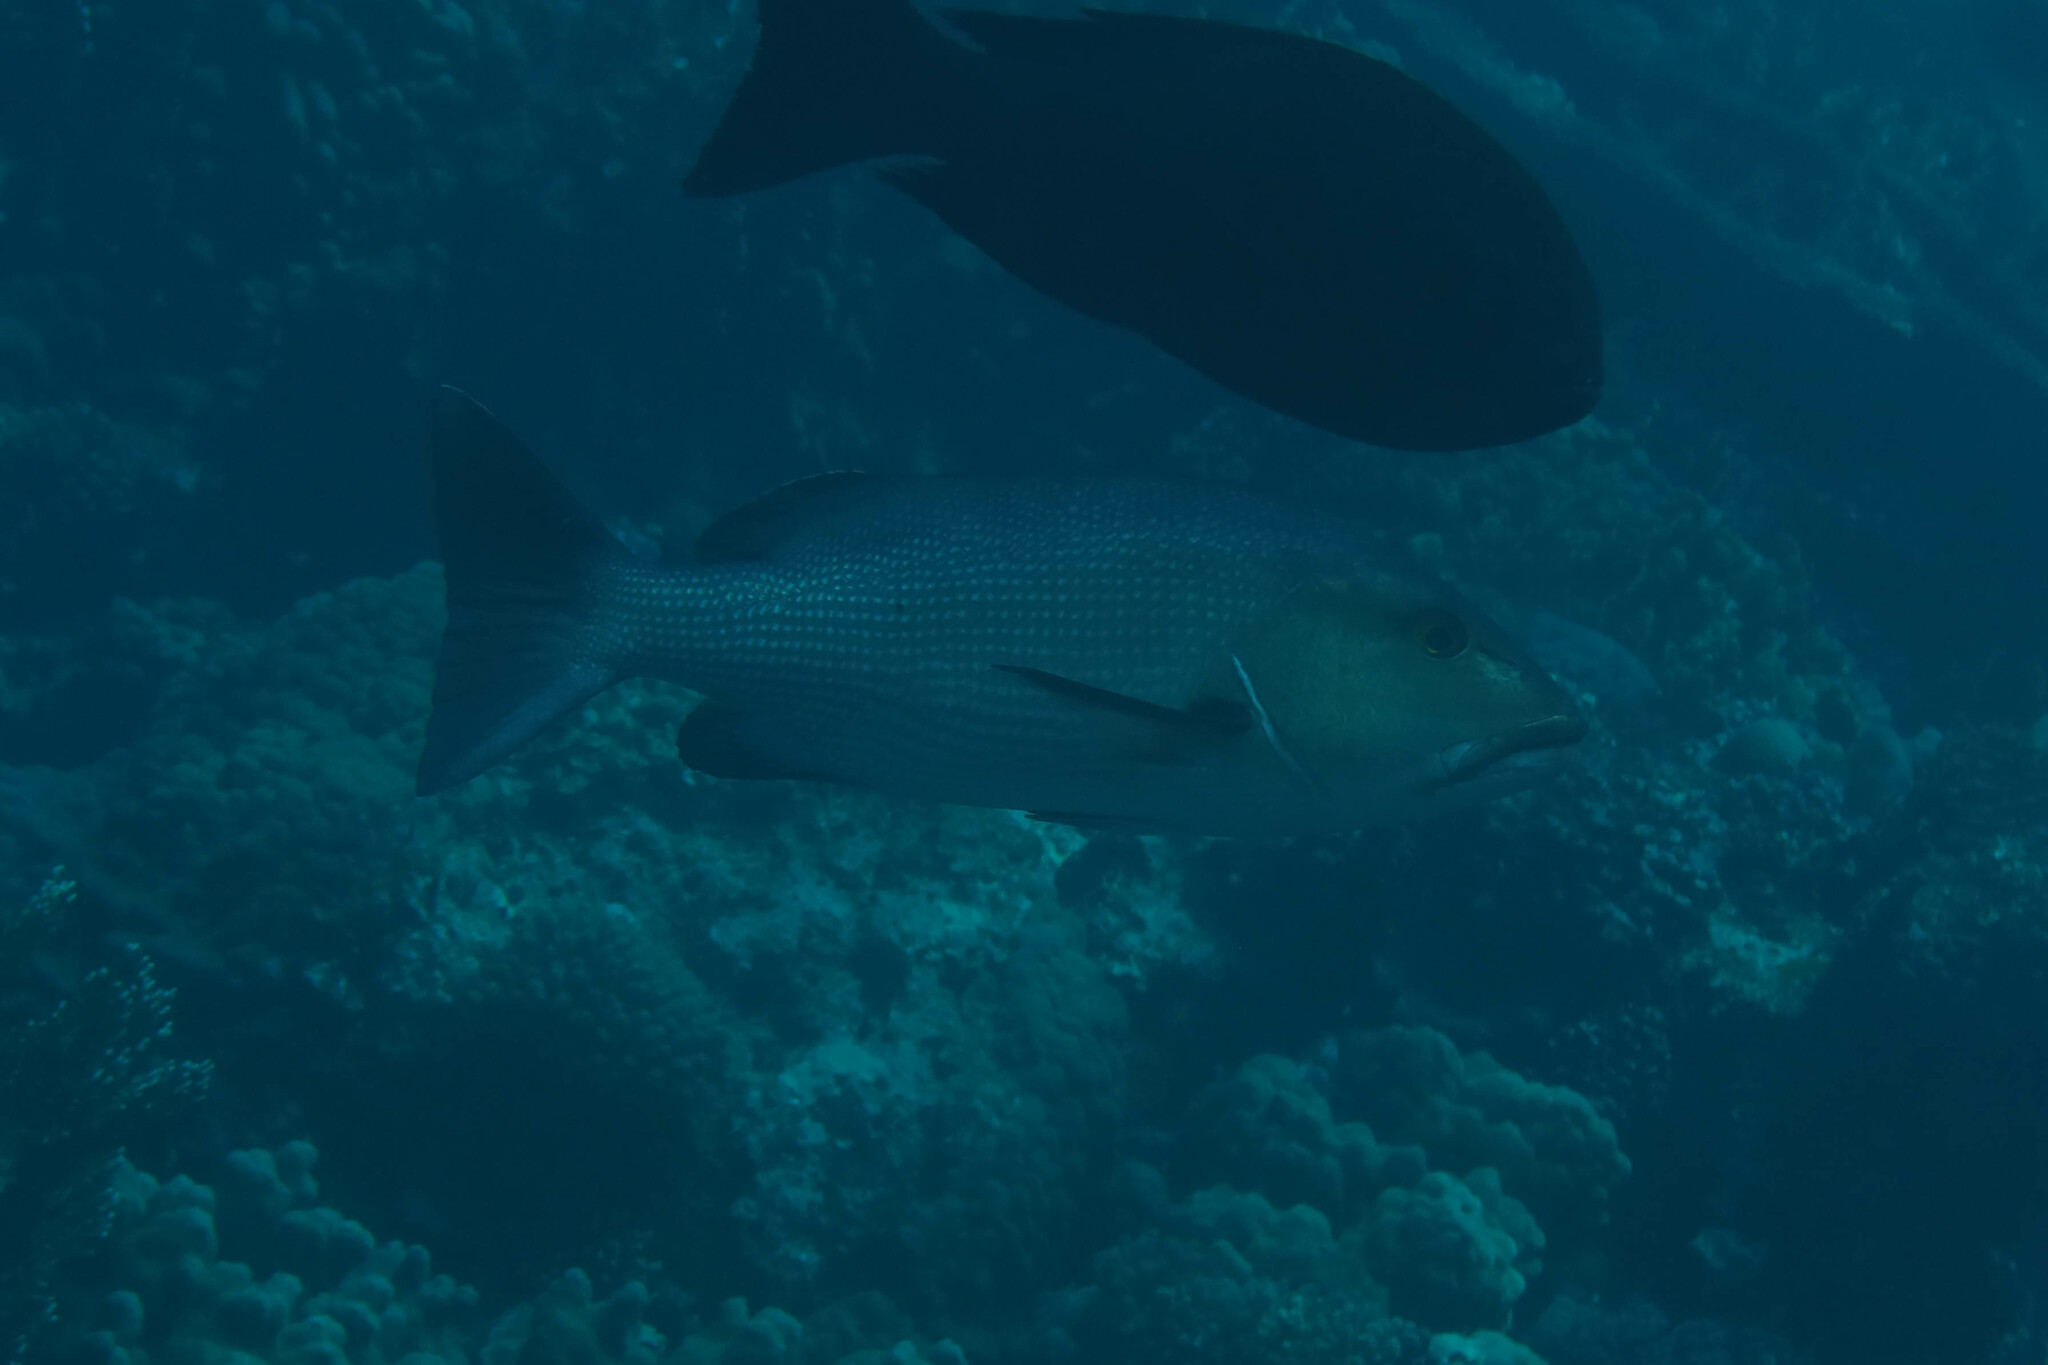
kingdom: Animalia
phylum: Chordata
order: Perciformes
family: Lutjanidae
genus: Lutjanus
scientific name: Lutjanus bohar
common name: Red bass
